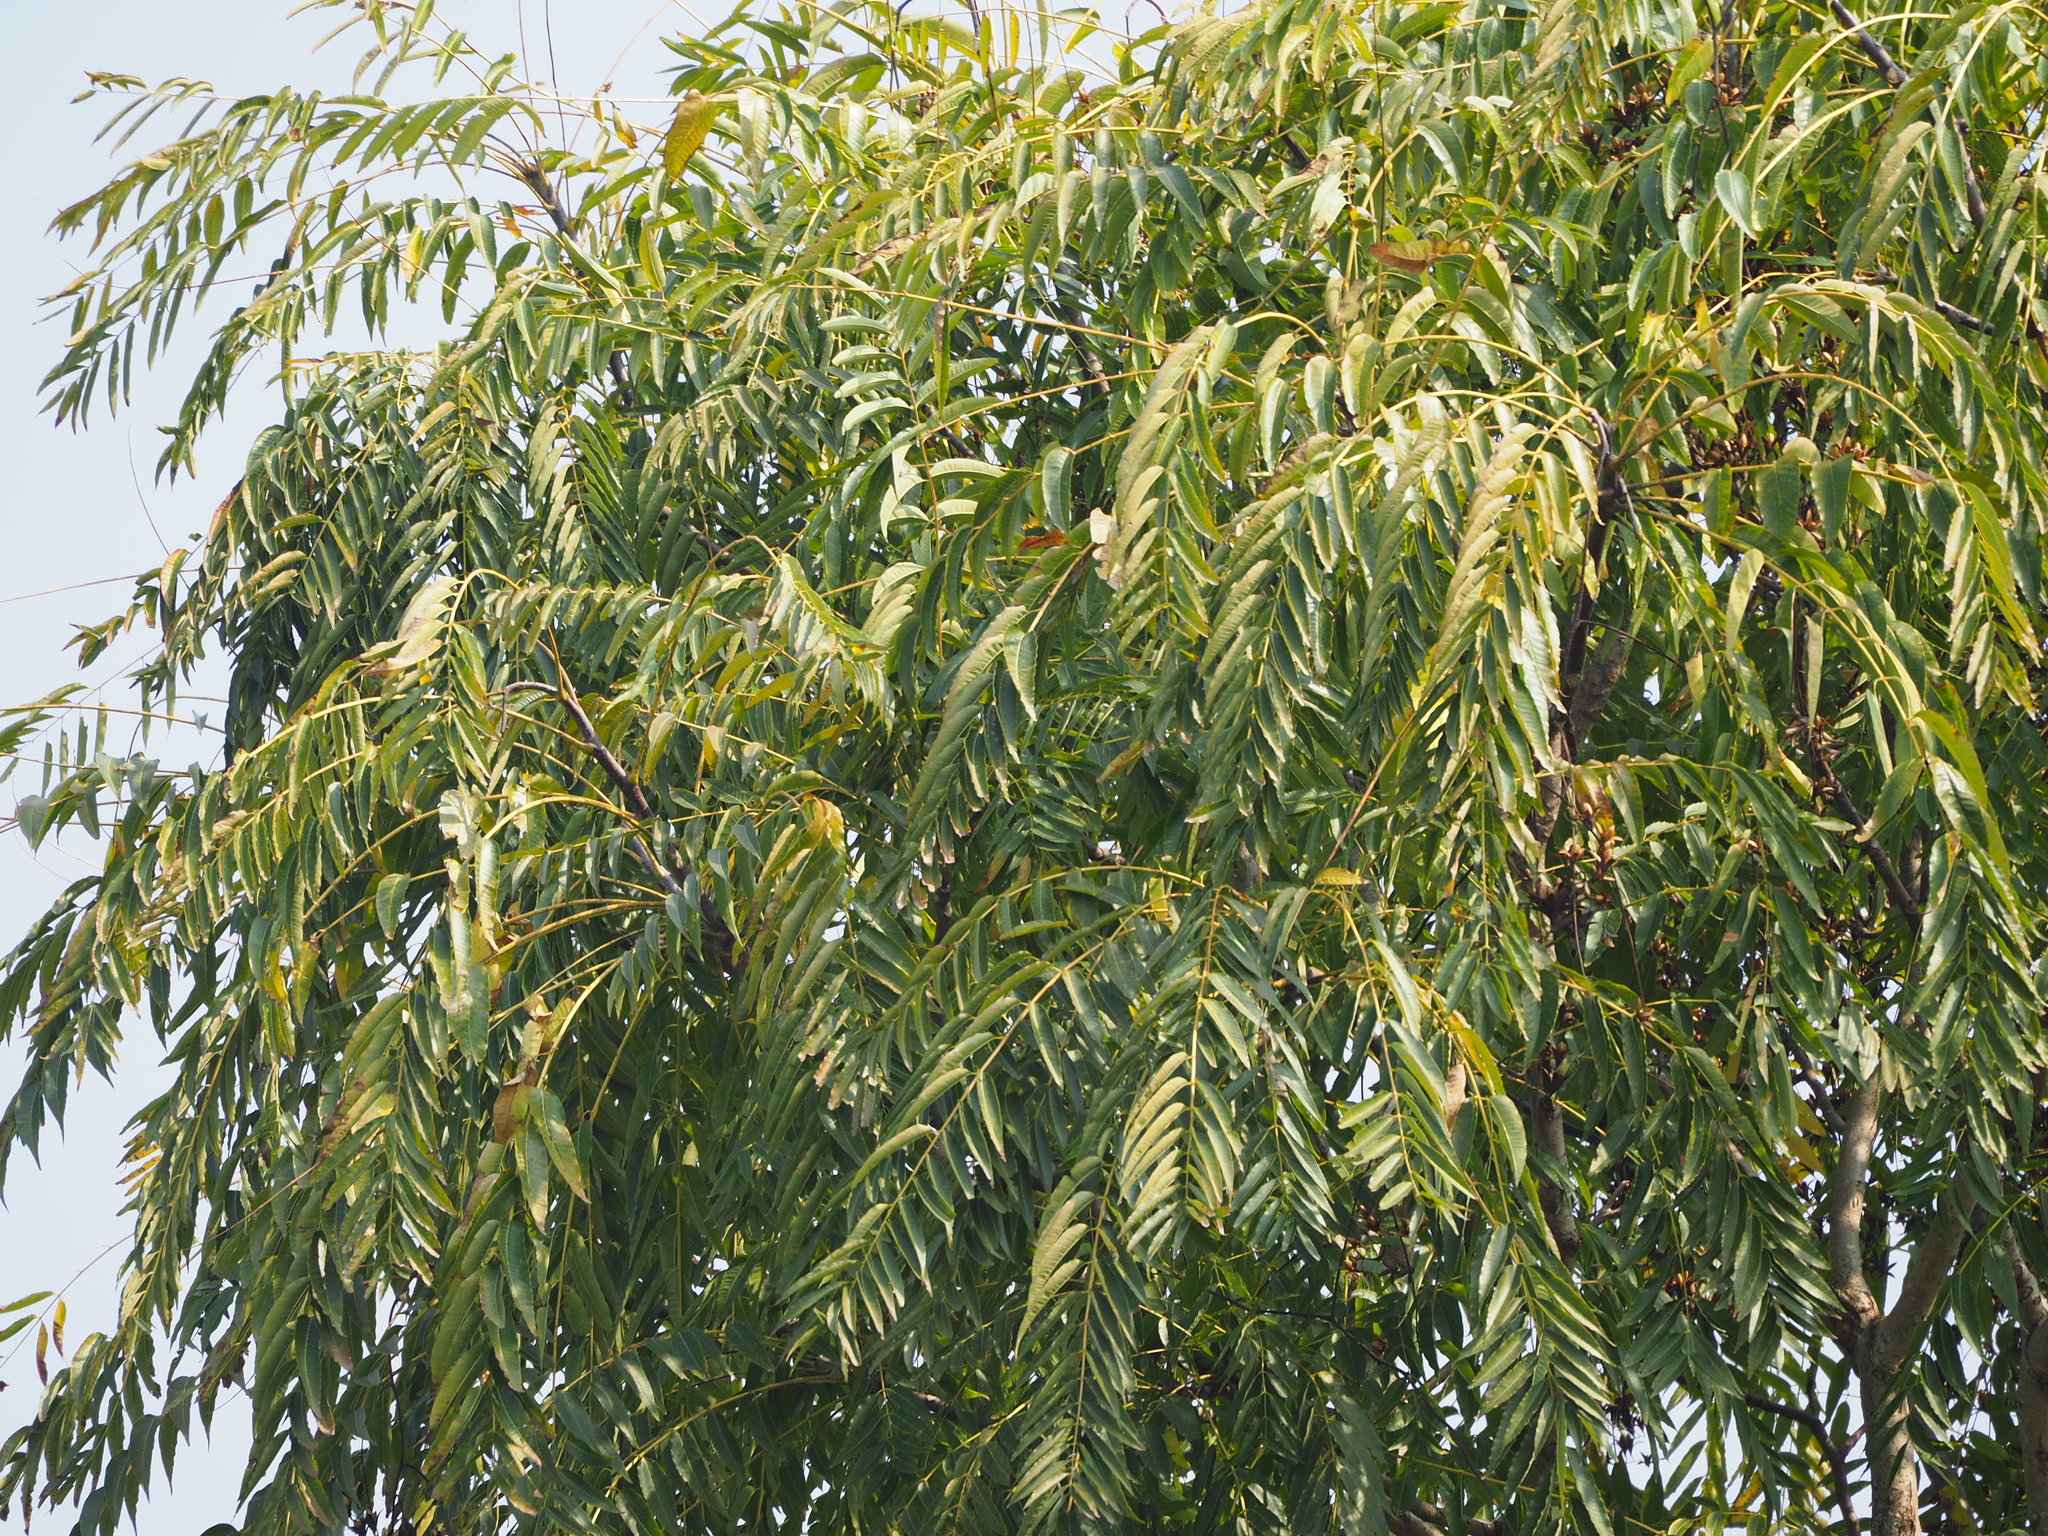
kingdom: Plantae
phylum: Tracheophyta
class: Magnoliopsida
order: Sapindales
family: Meliaceae
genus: Toona
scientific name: Toona sinensis
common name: Red toon
